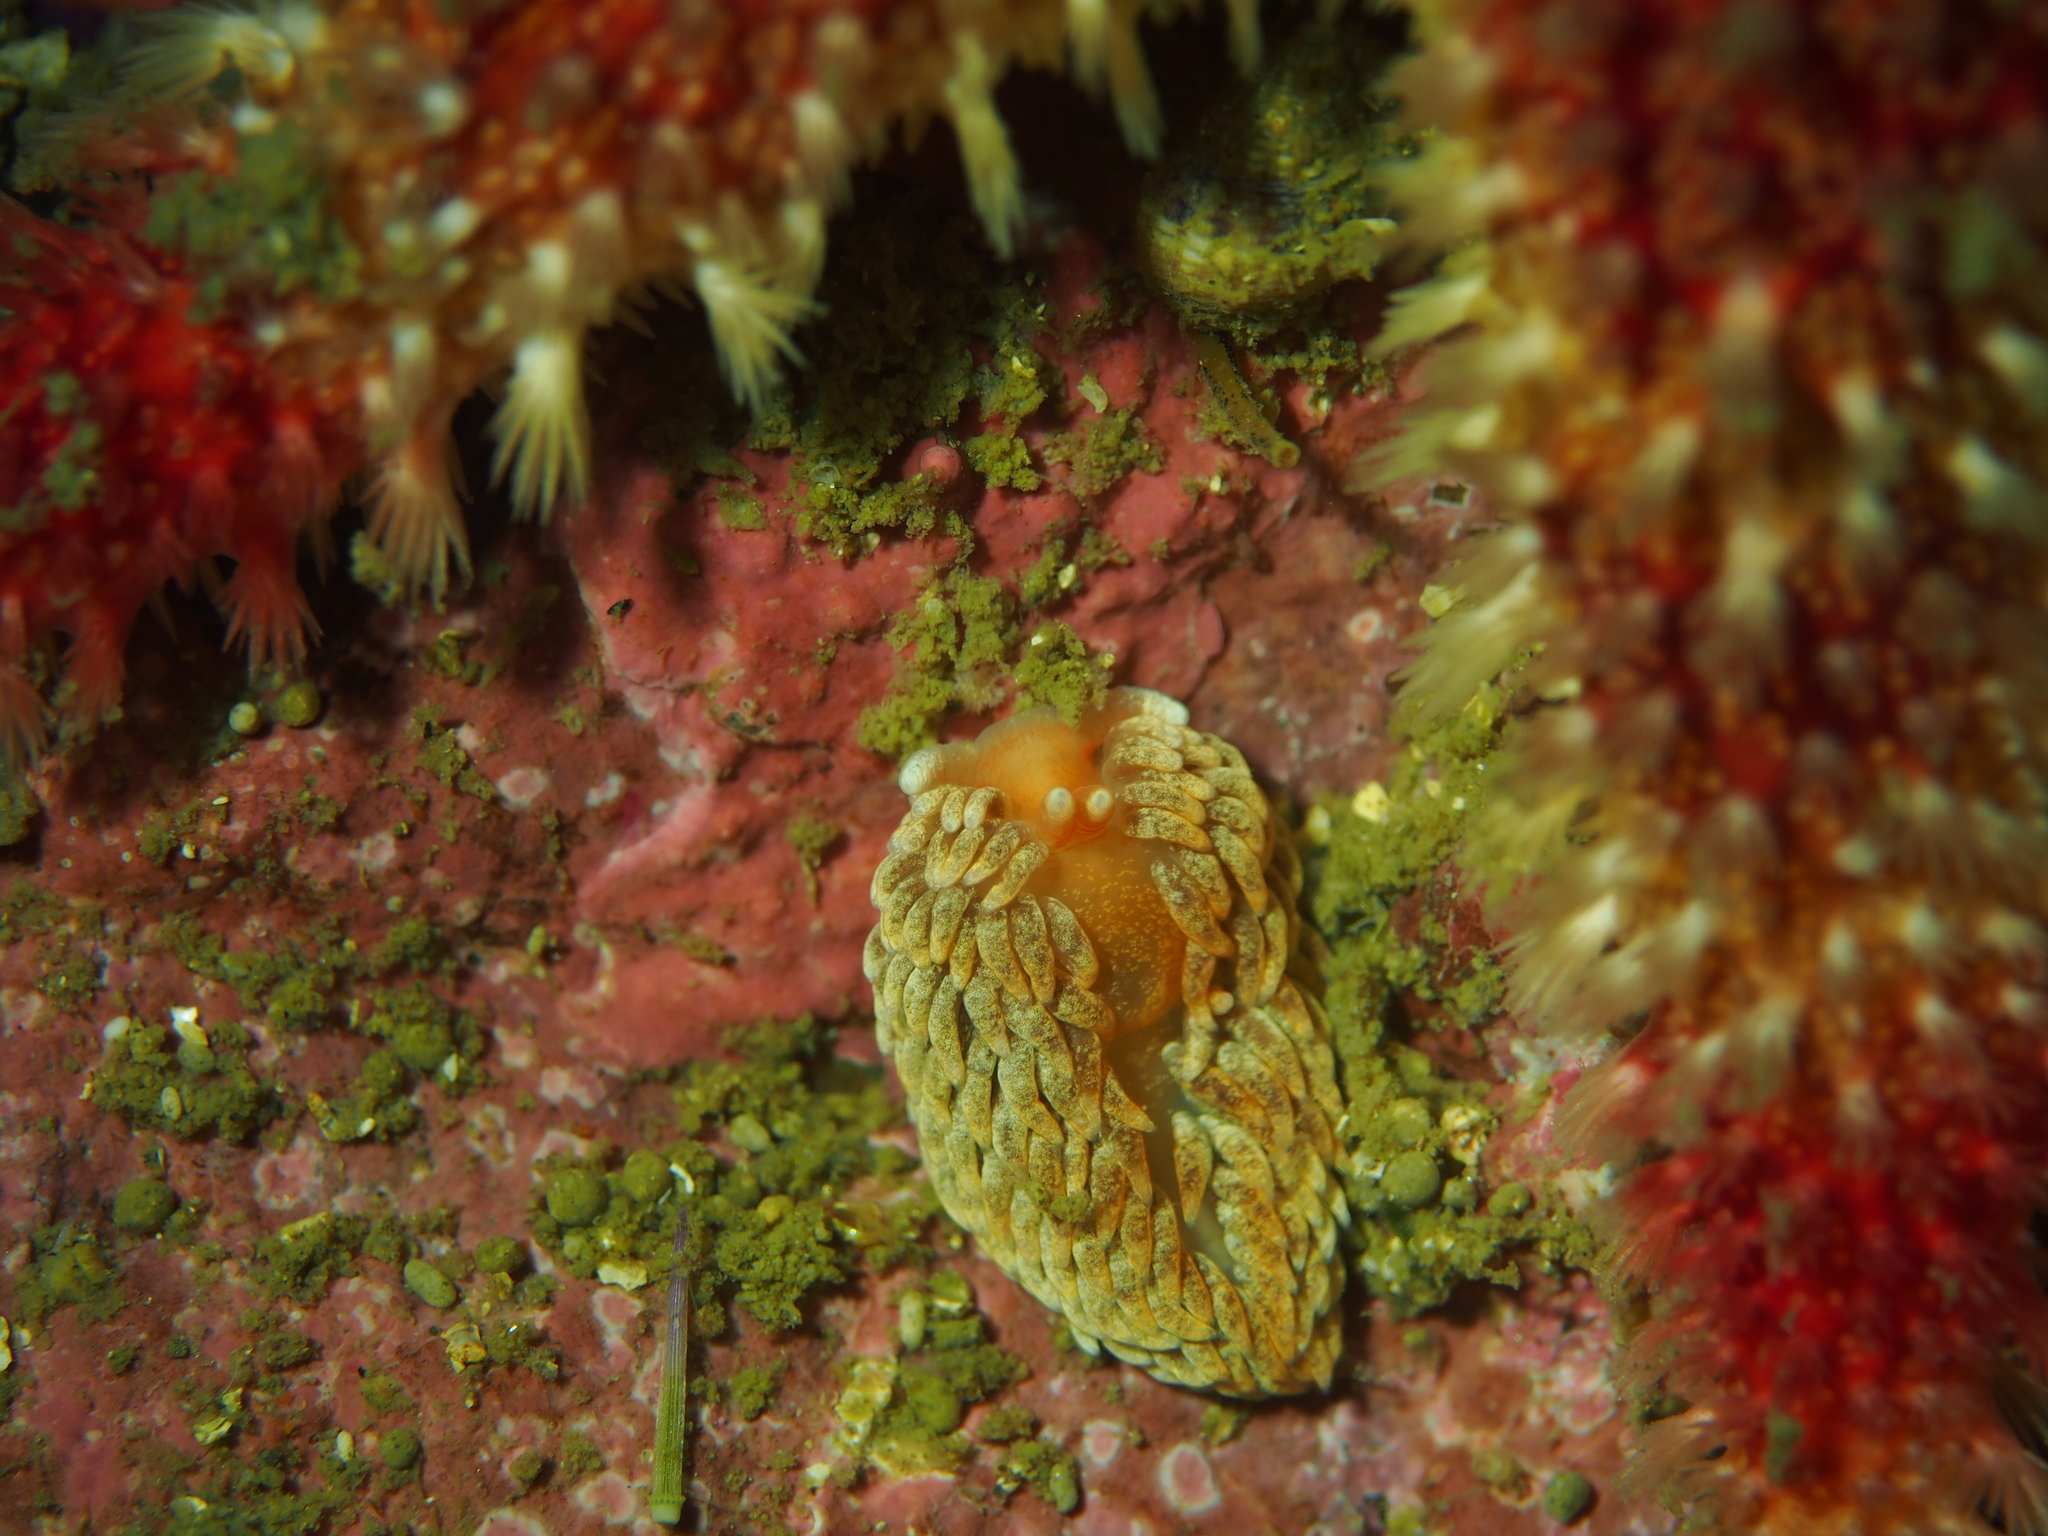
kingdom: Animalia
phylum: Mollusca
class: Gastropoda
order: Nudibranchia
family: Aeolidiidae
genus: Aeolidiella
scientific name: Aeolidiella glauca
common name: Orange-brown aeolid
